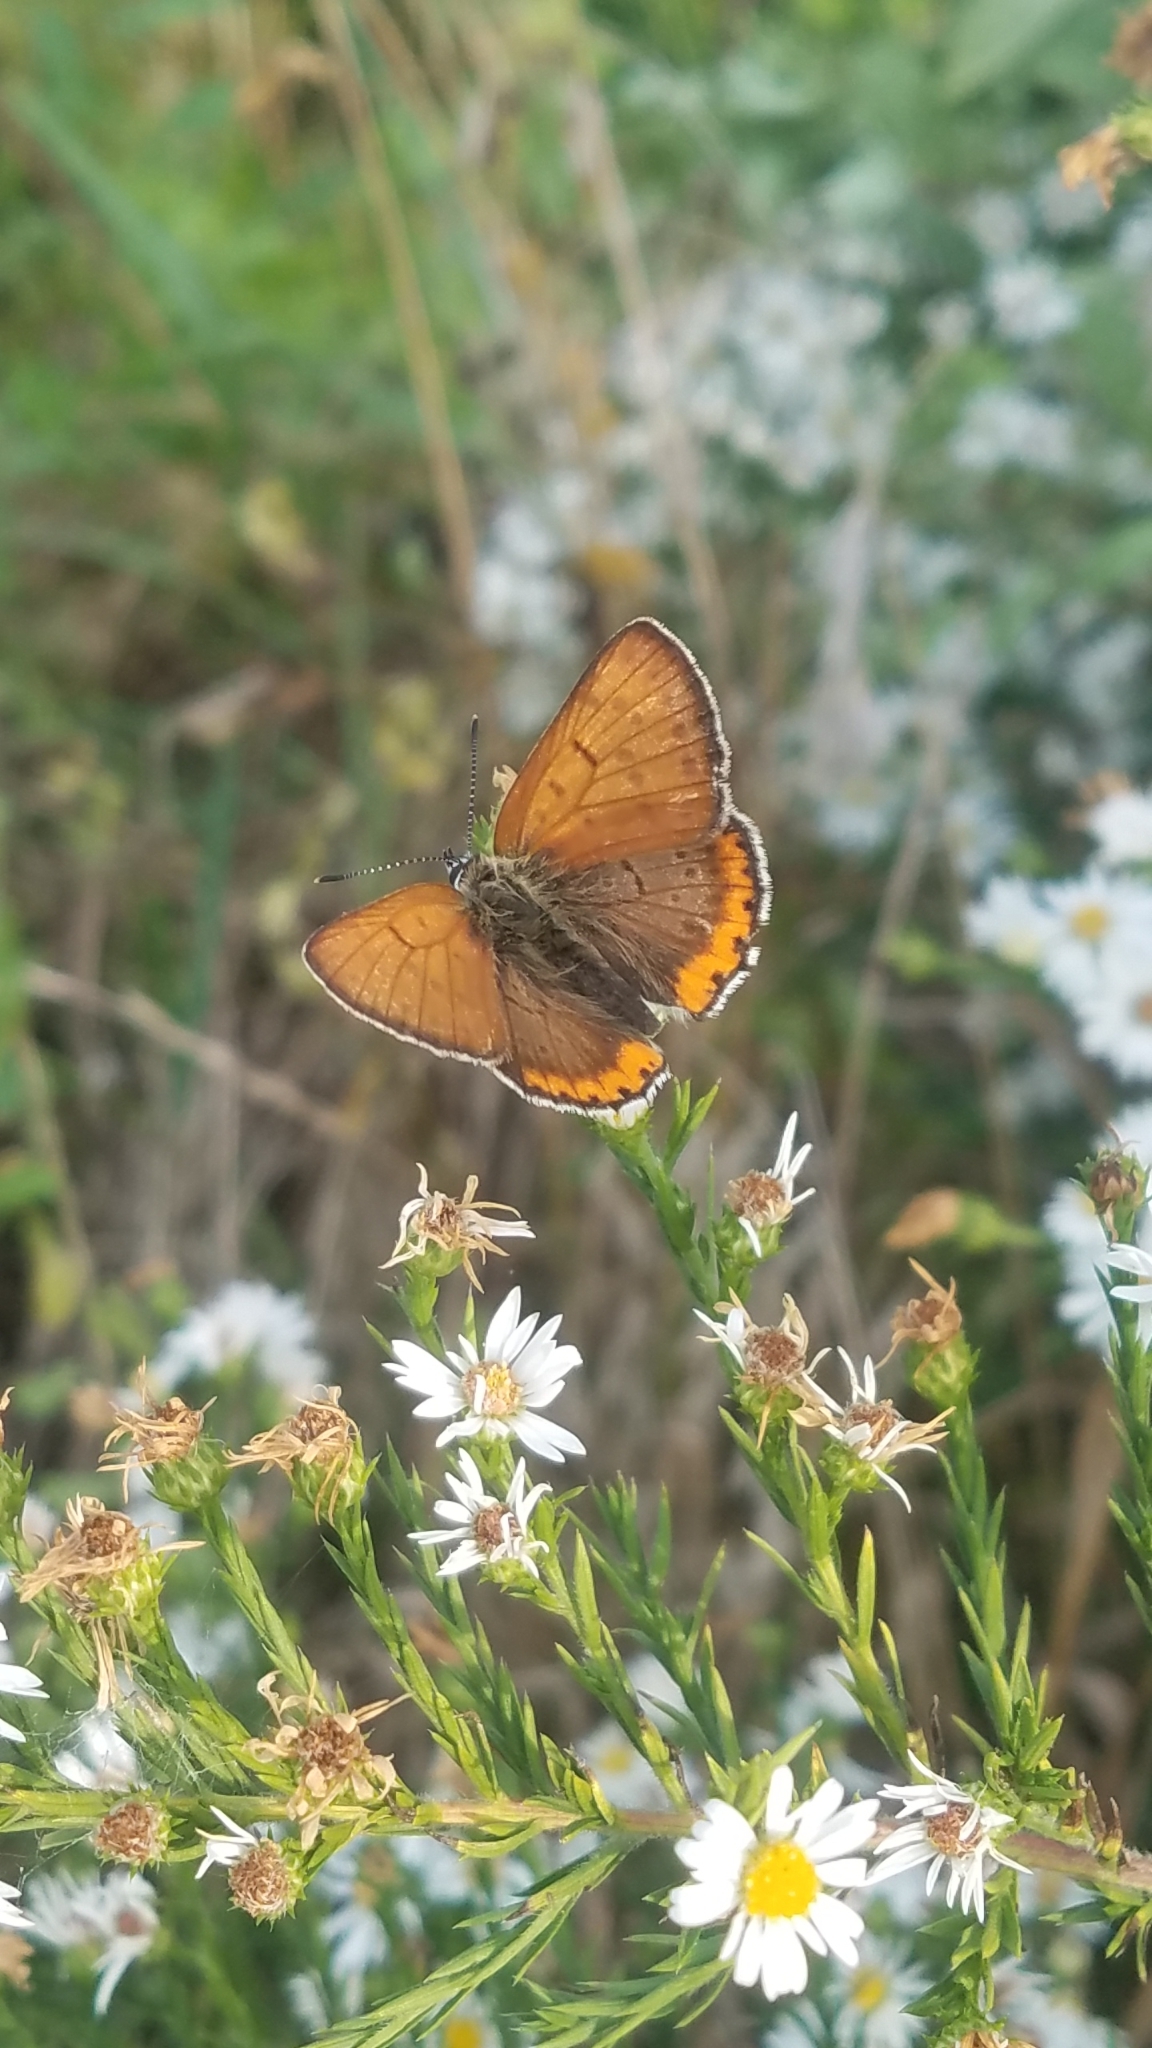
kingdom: Animalia
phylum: Arthropoda
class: Insecta
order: Lepidoptera
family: Lycaenidae
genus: Tharsalea
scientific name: Tharsalea hyllus
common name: Bronze copper
